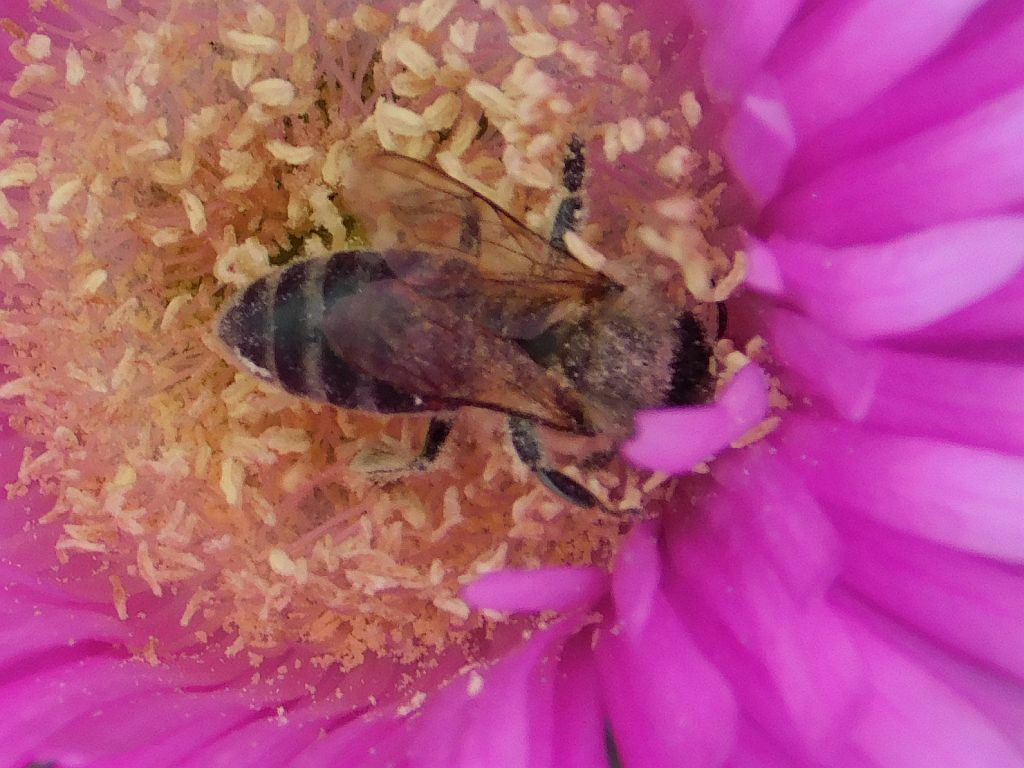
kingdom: Animalia
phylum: Arthropoda
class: Insecta
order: Hymenoptera
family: Apidae
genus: Apis
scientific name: Apis mellifera
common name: Honey bee
